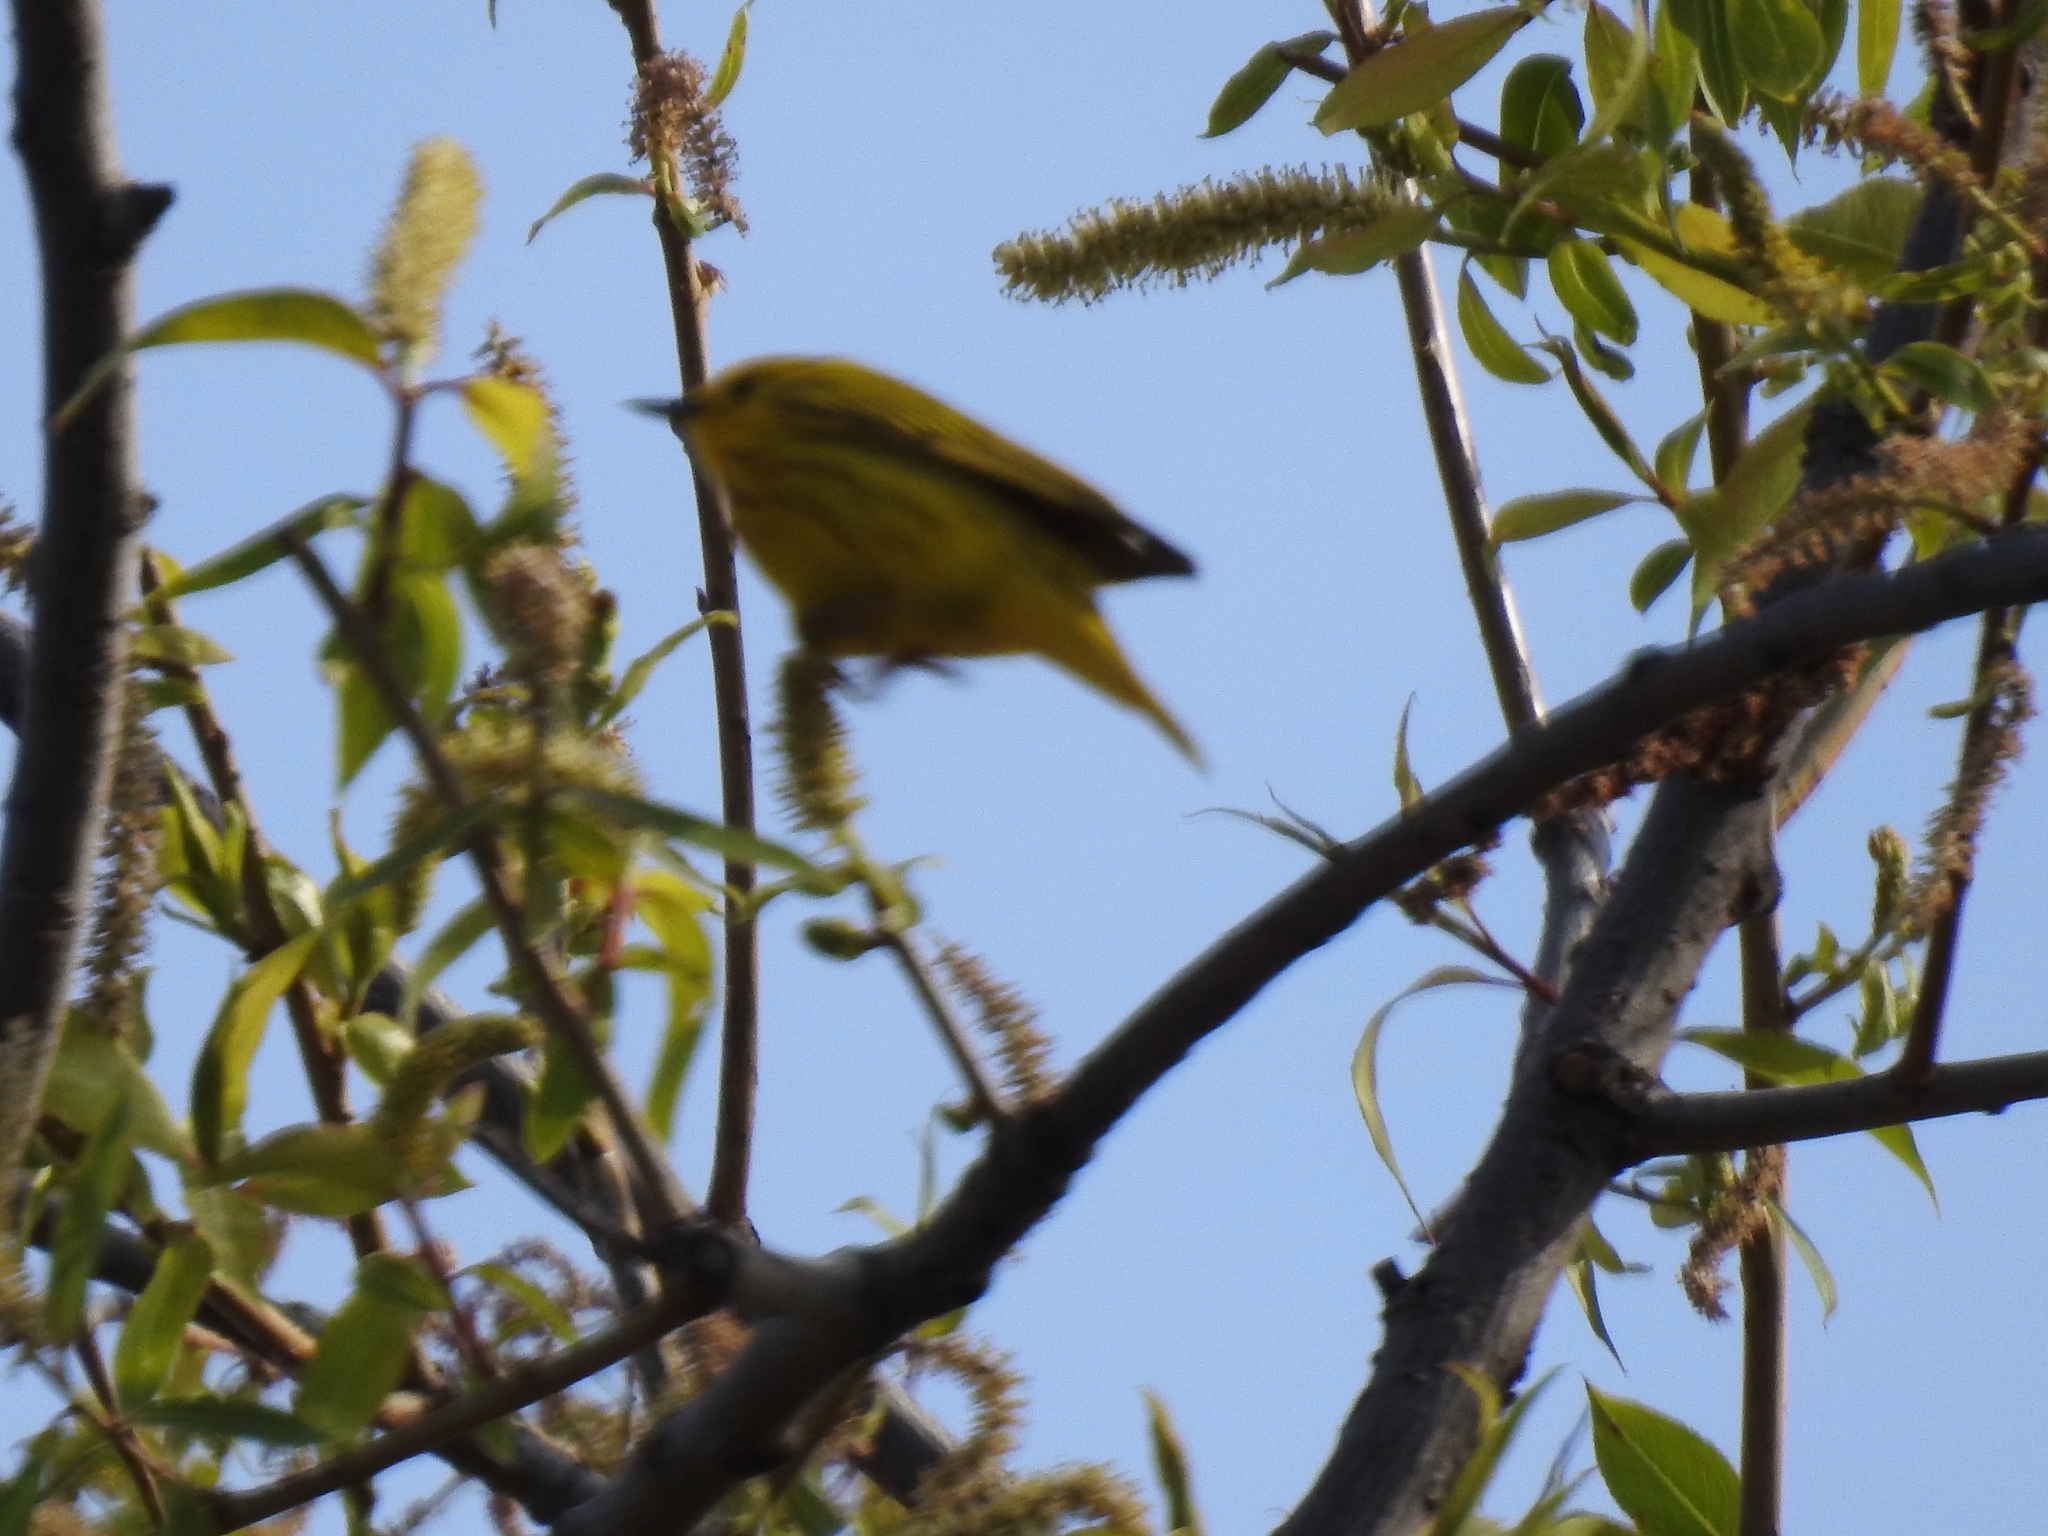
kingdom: Animalia
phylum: Chordata
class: Aves
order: Passeriformes
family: Parulidae
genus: Setophaga
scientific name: Setophaga petechia
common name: Yellow warbler
